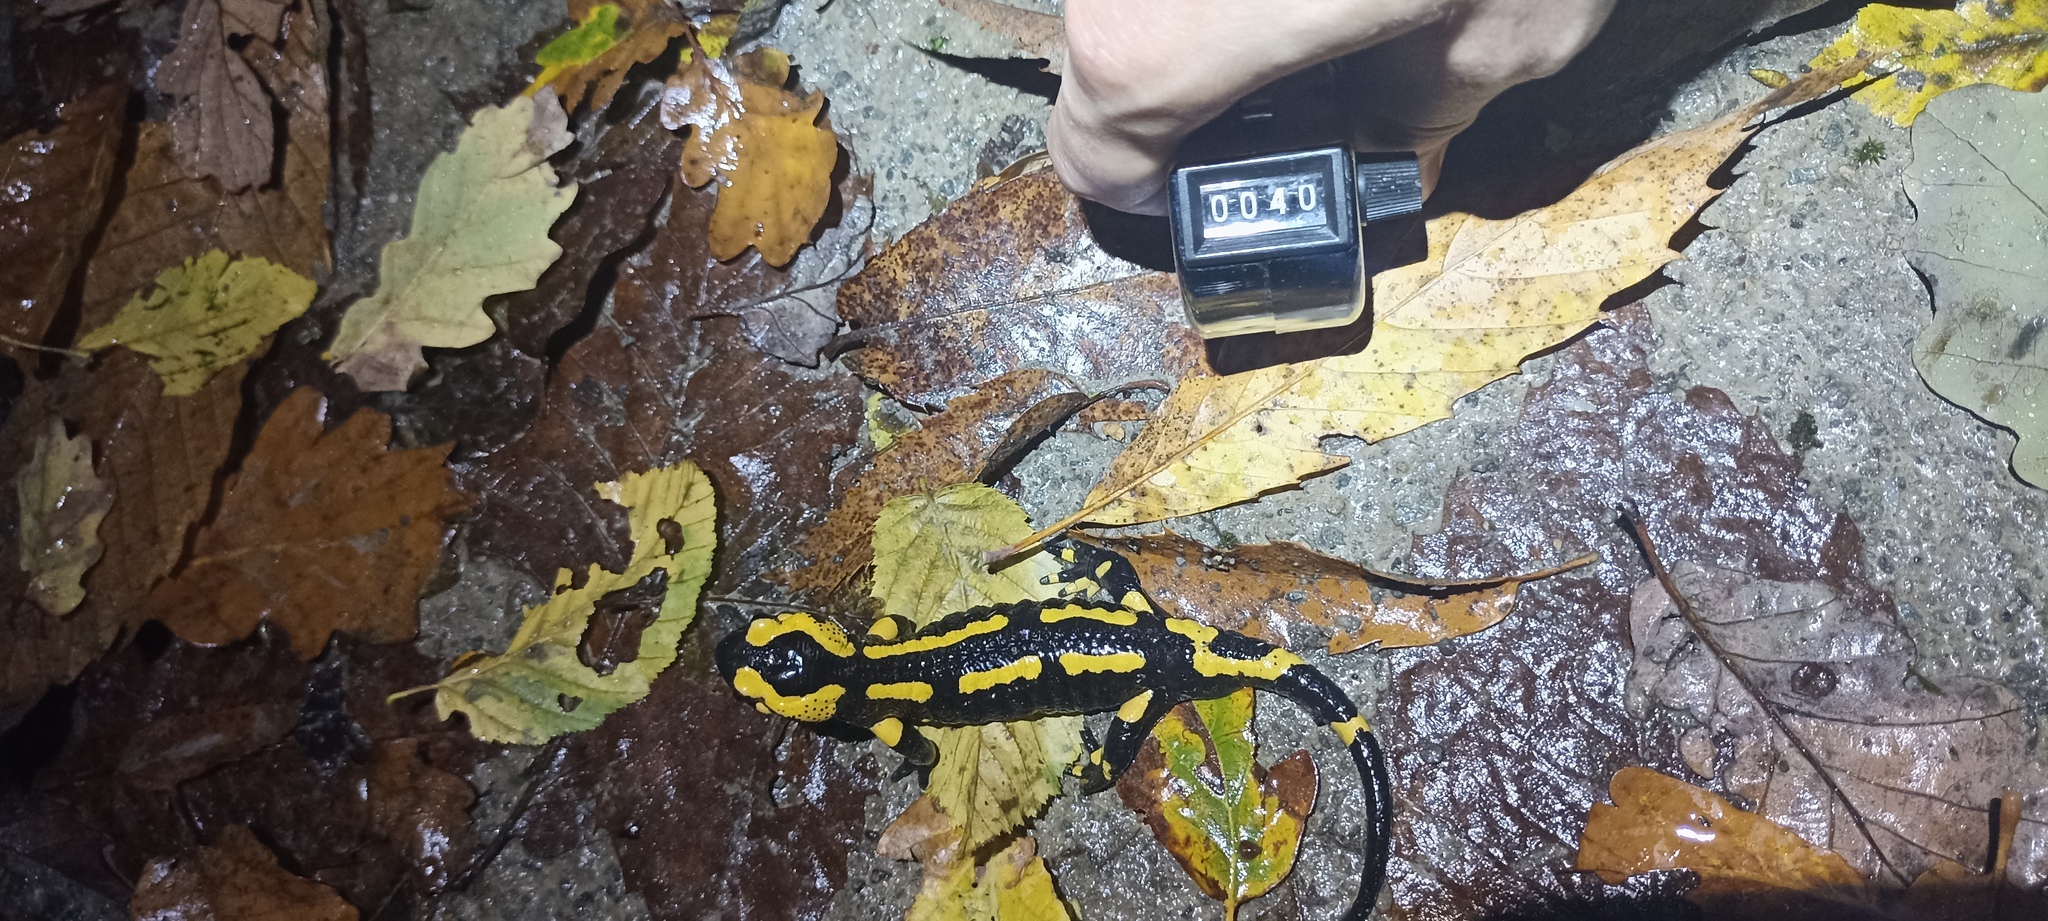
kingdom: Animalia
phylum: Chordata
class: Amphibia
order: Caudata
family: Salamandridae
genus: Salamandra
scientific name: Salamandra salamandra
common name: Fire salamander
